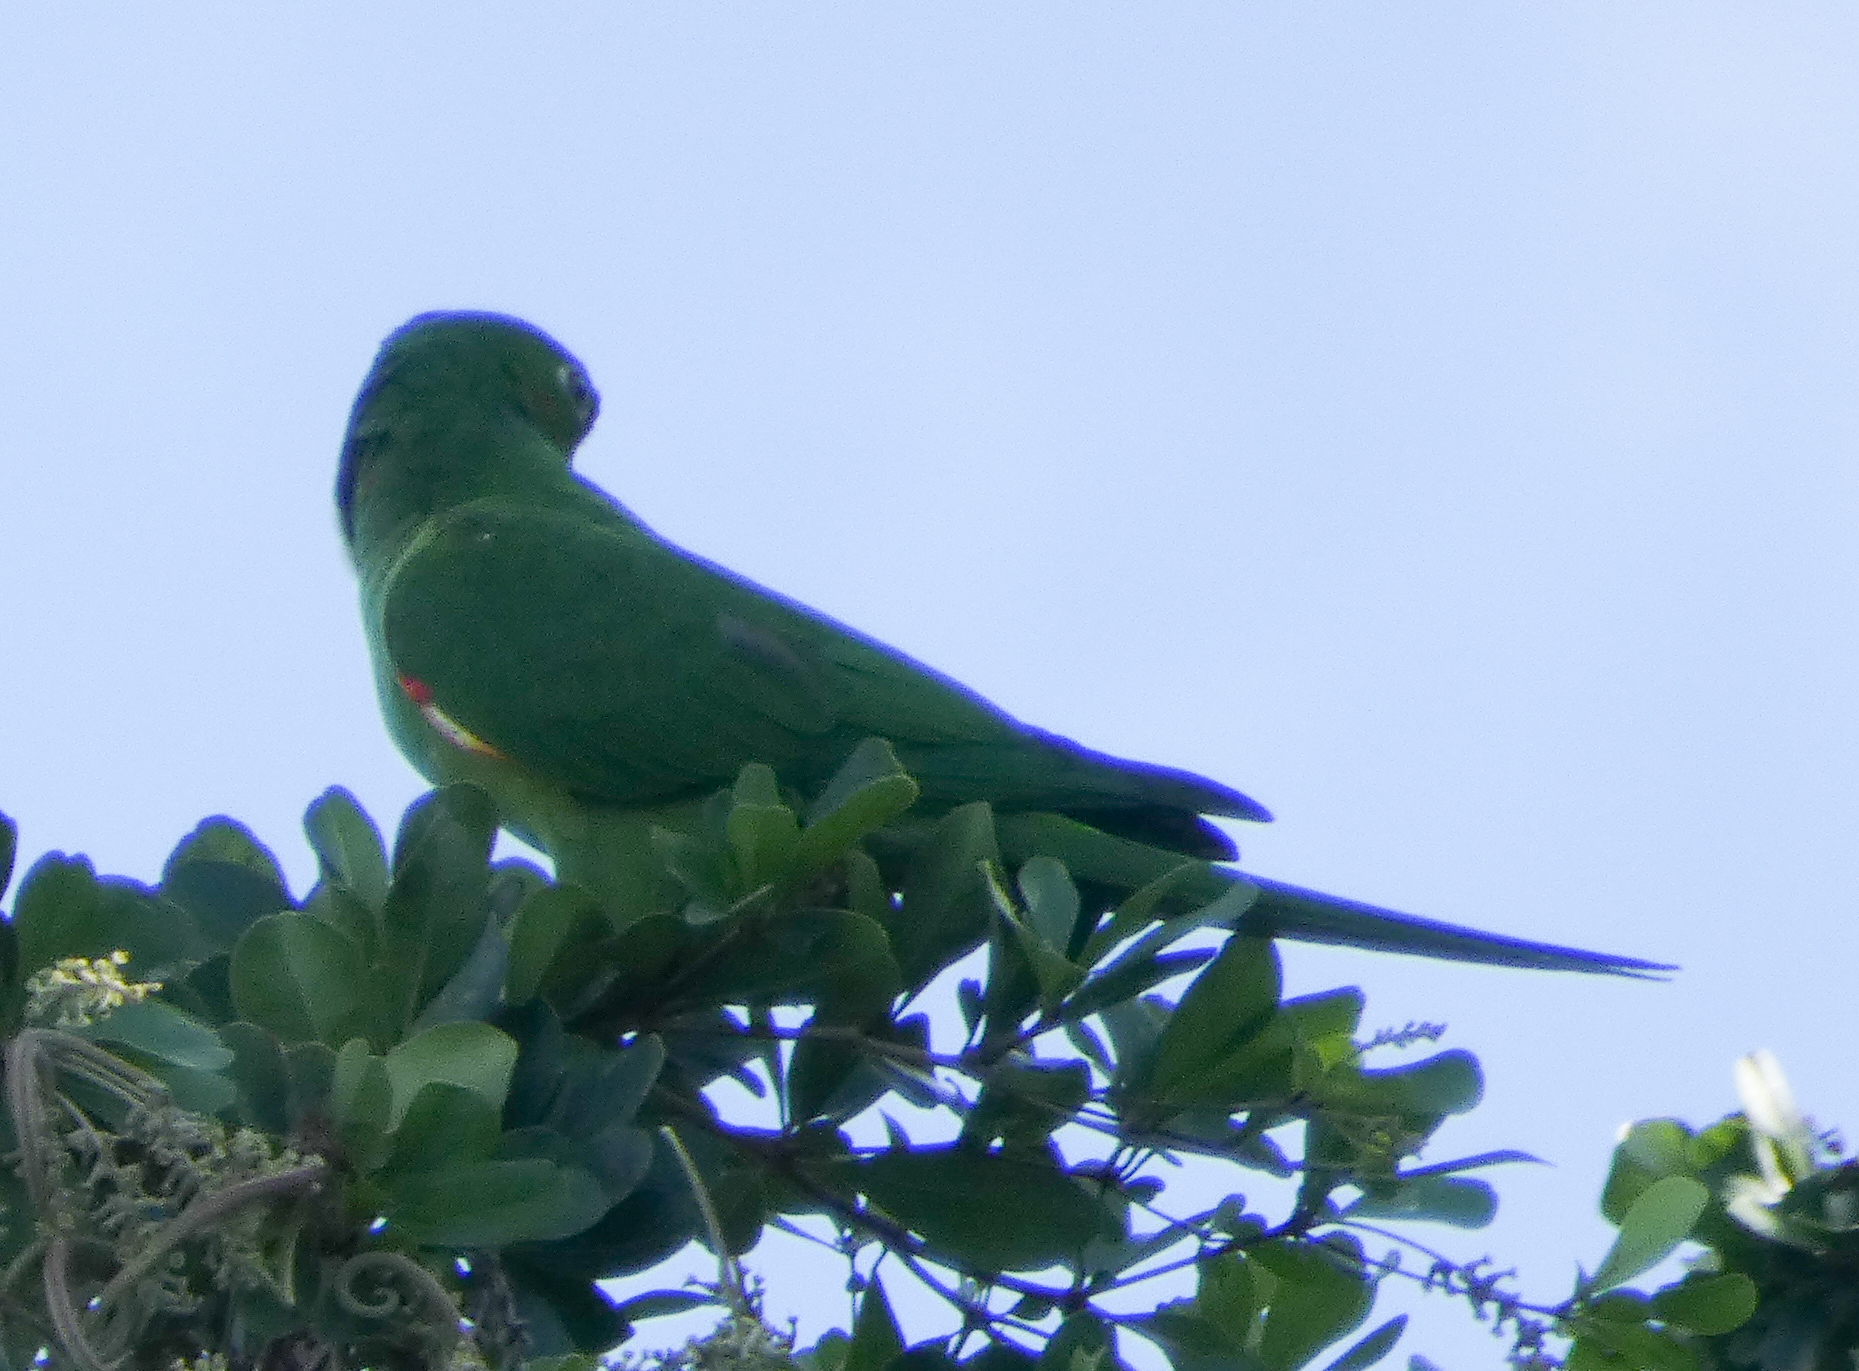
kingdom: Animalia
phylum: Chordata
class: Aves
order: Psittaciformes
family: Psittacidae
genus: Aratinga
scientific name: Aratinga leucophthalma
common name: White-eyed parakeet
